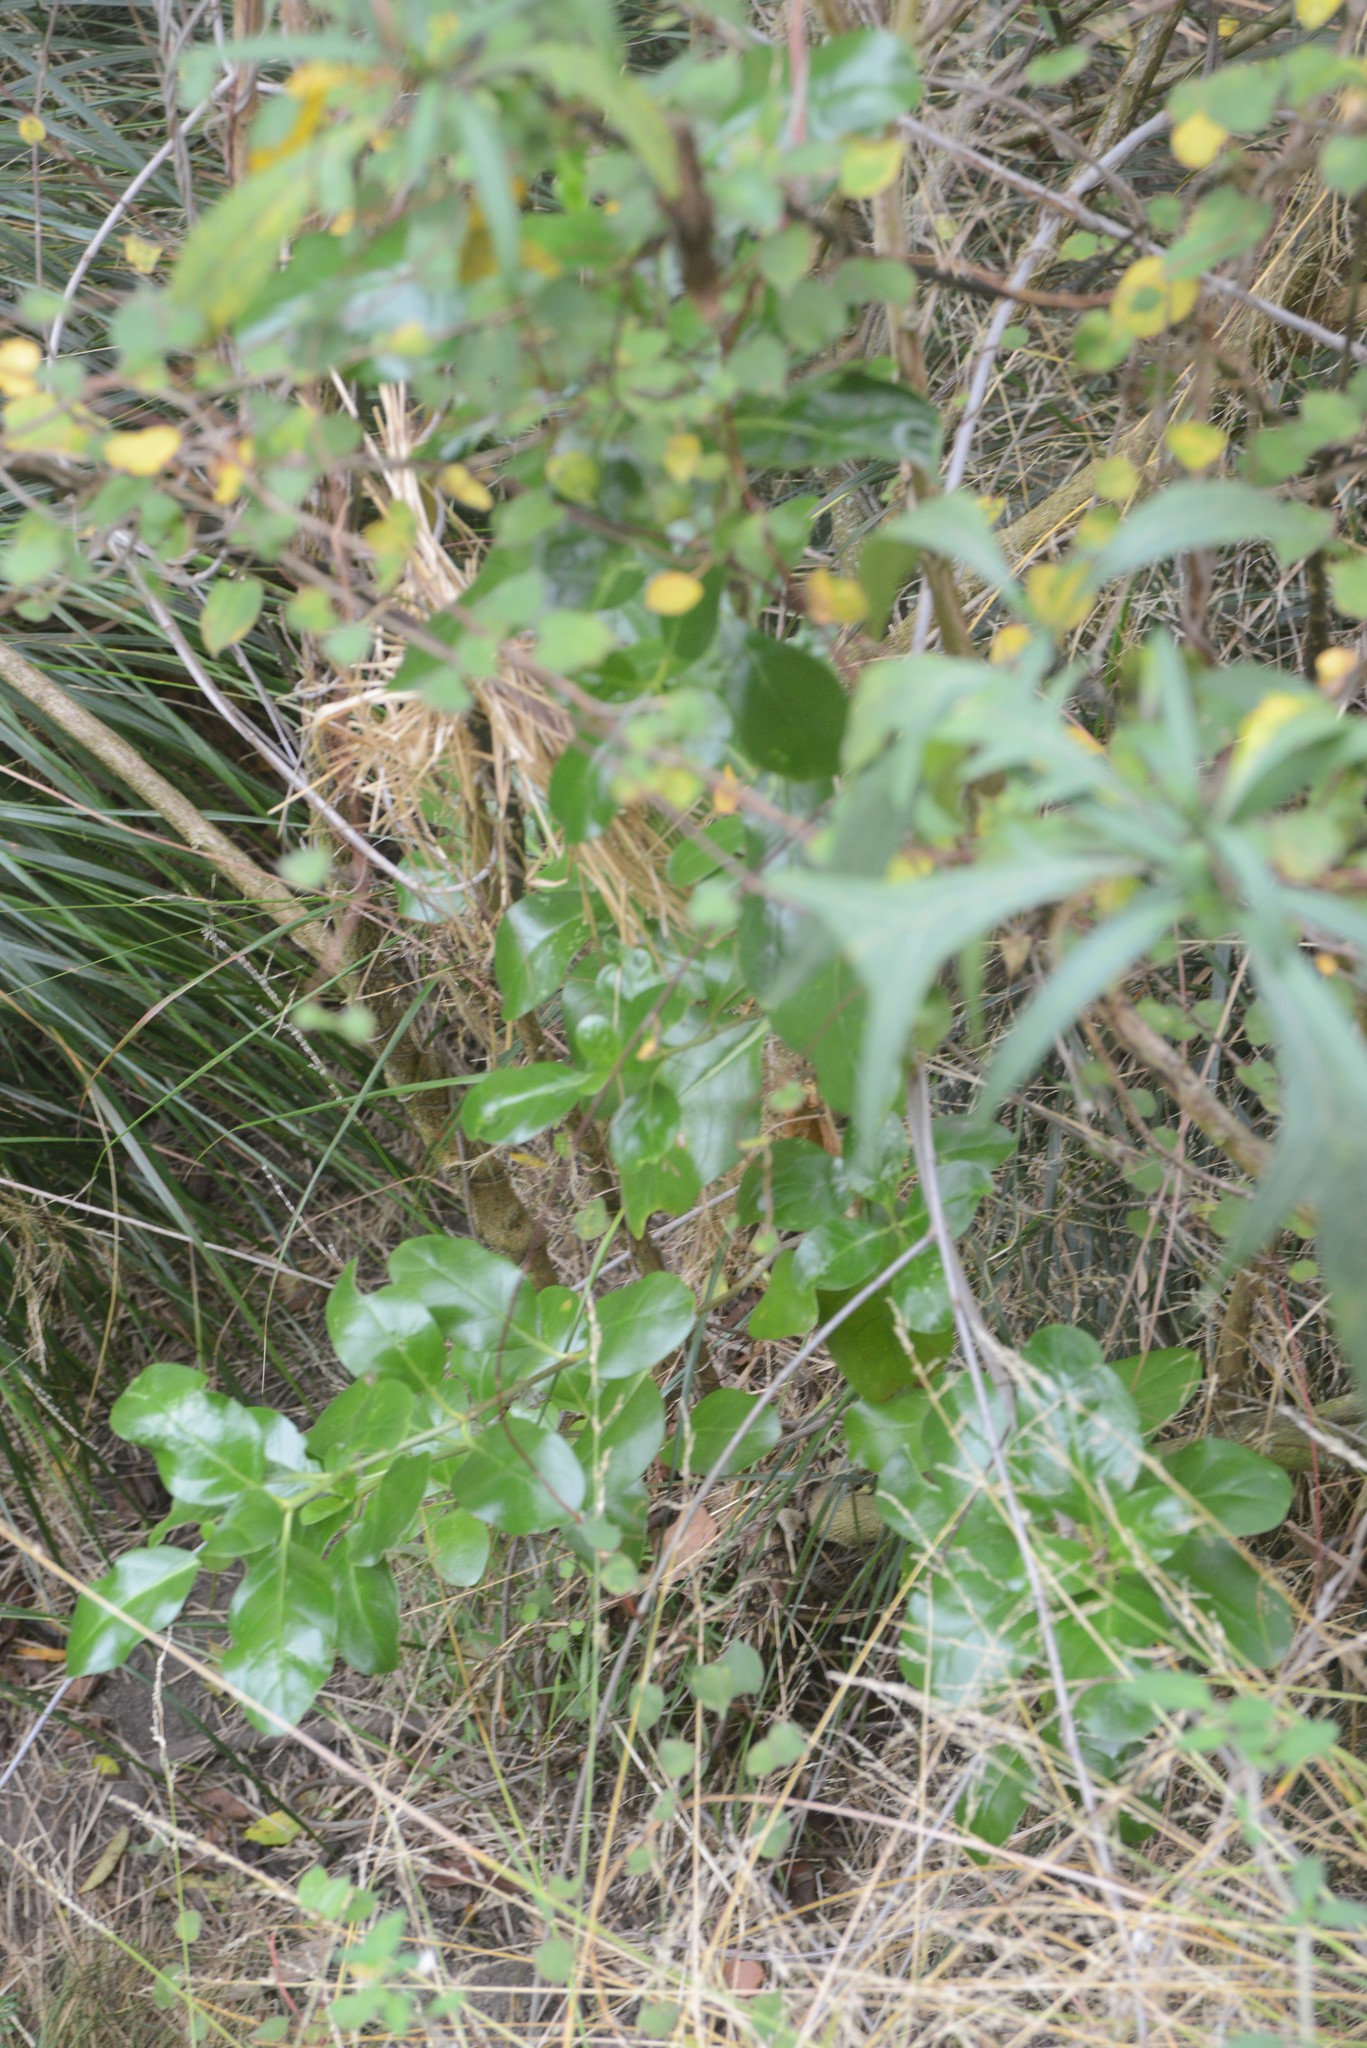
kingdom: Plantae
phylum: Tracheophyta
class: Magnoliopsida
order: Gentianales
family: Rubiaceae
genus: Coprosma
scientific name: Coprosma repens
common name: Tree bedstraw
